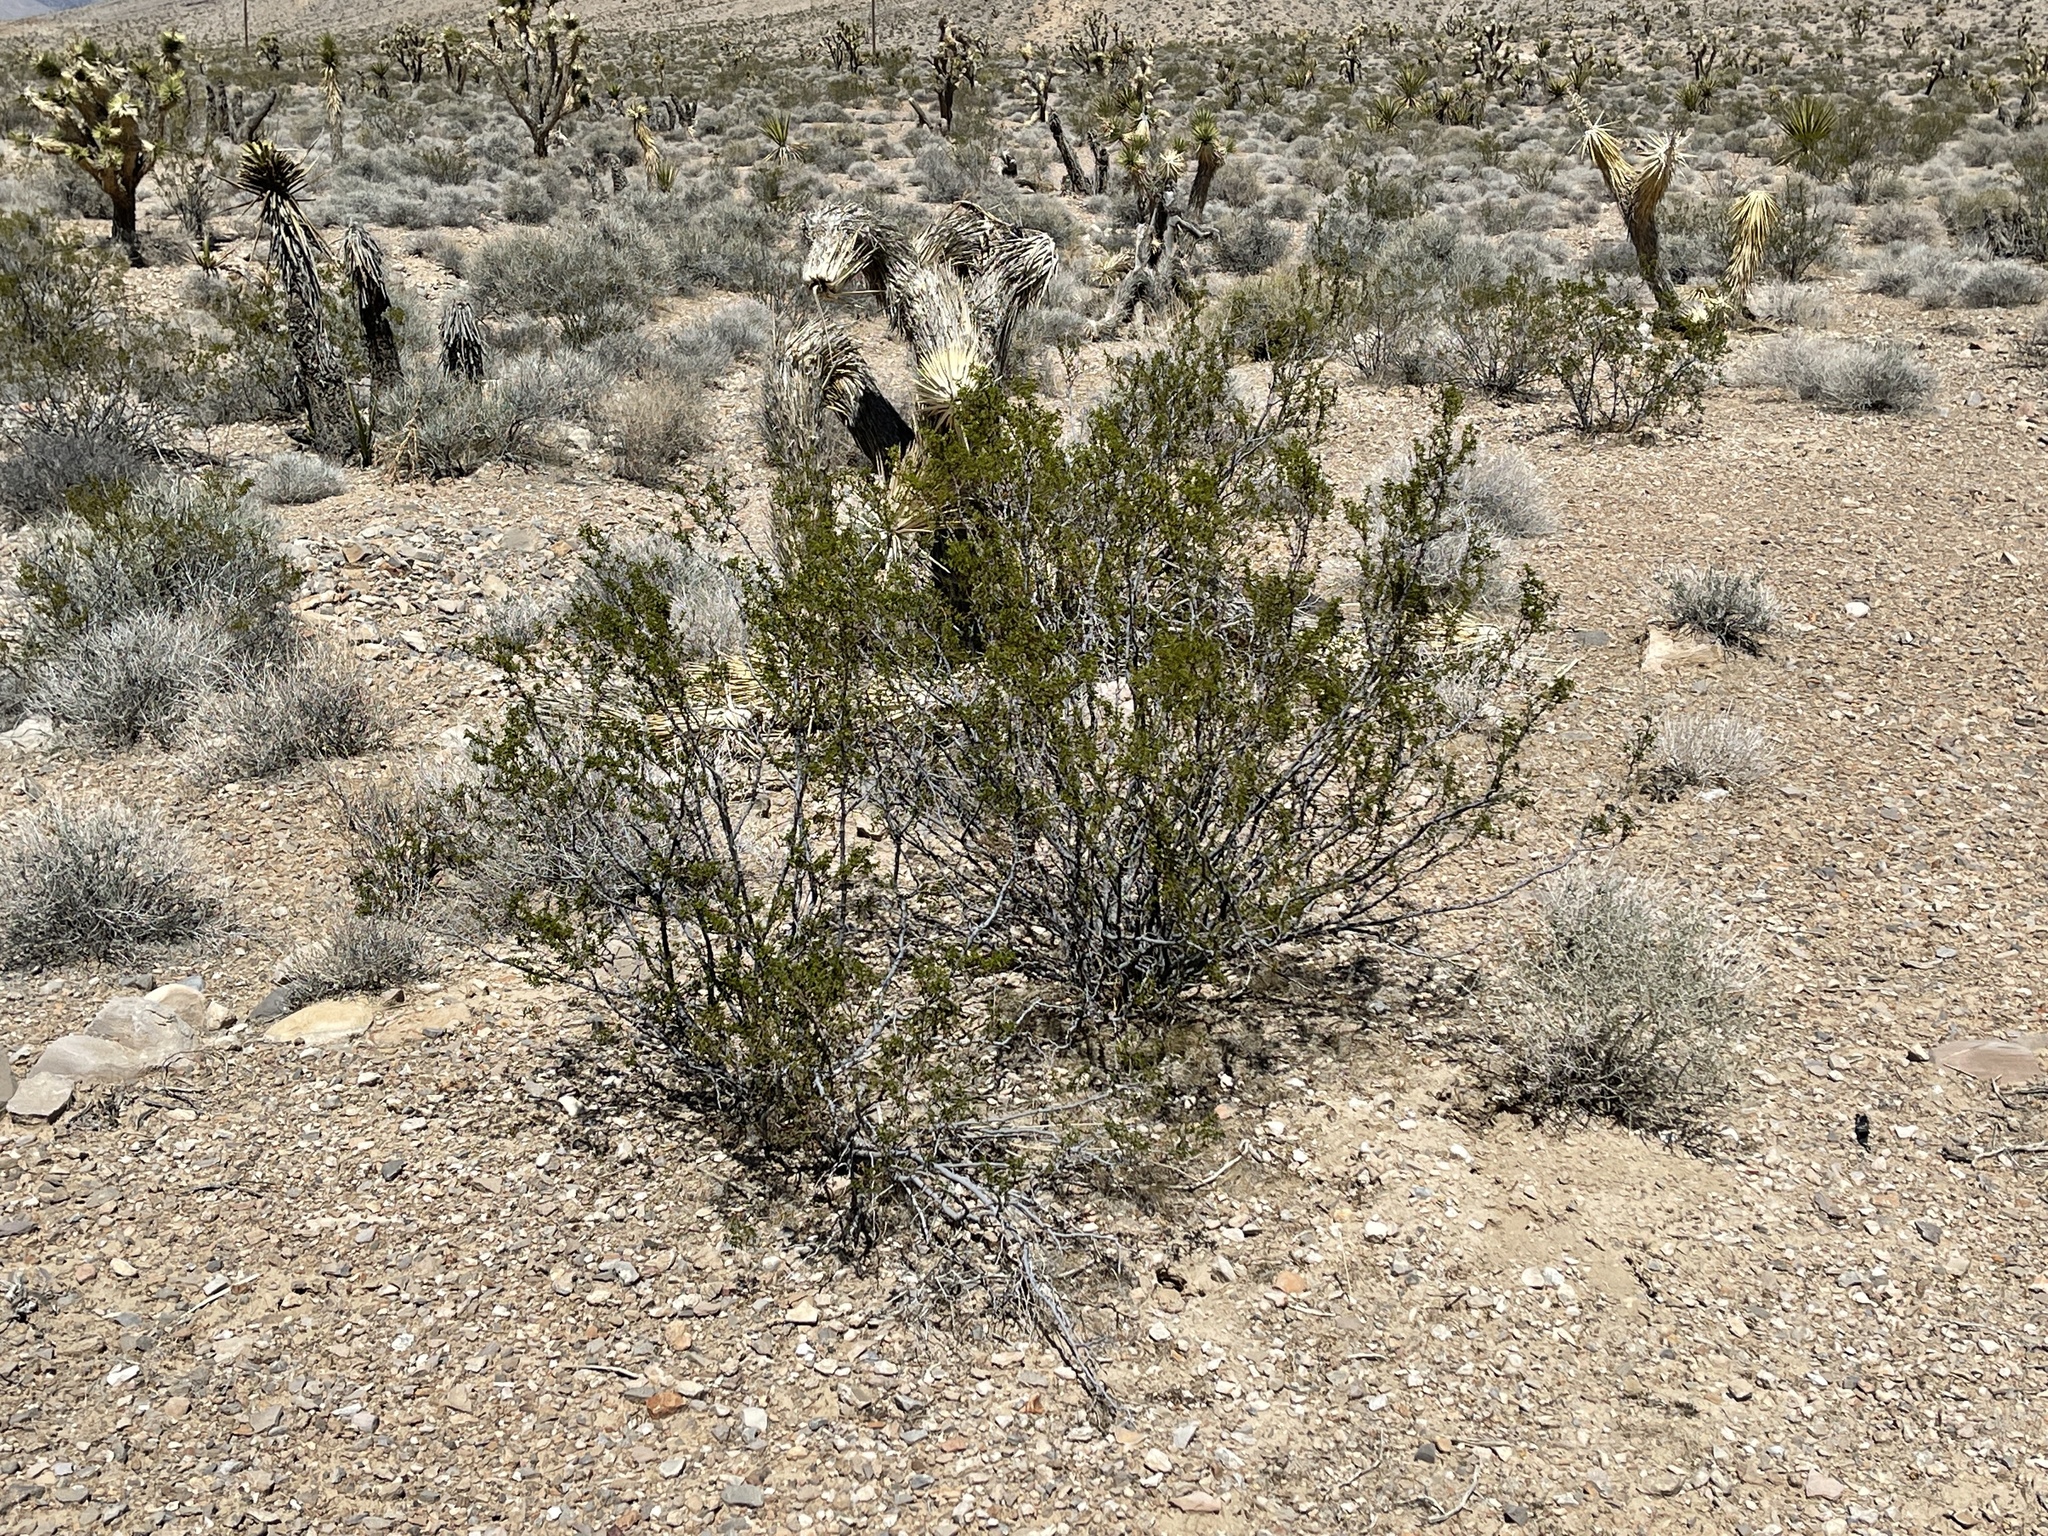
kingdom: Plantae
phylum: Tracheophyta
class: Magnoliopsida
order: Zygophyllales
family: Zygophyllaceae
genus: Larrea
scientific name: Larrea tridentata
